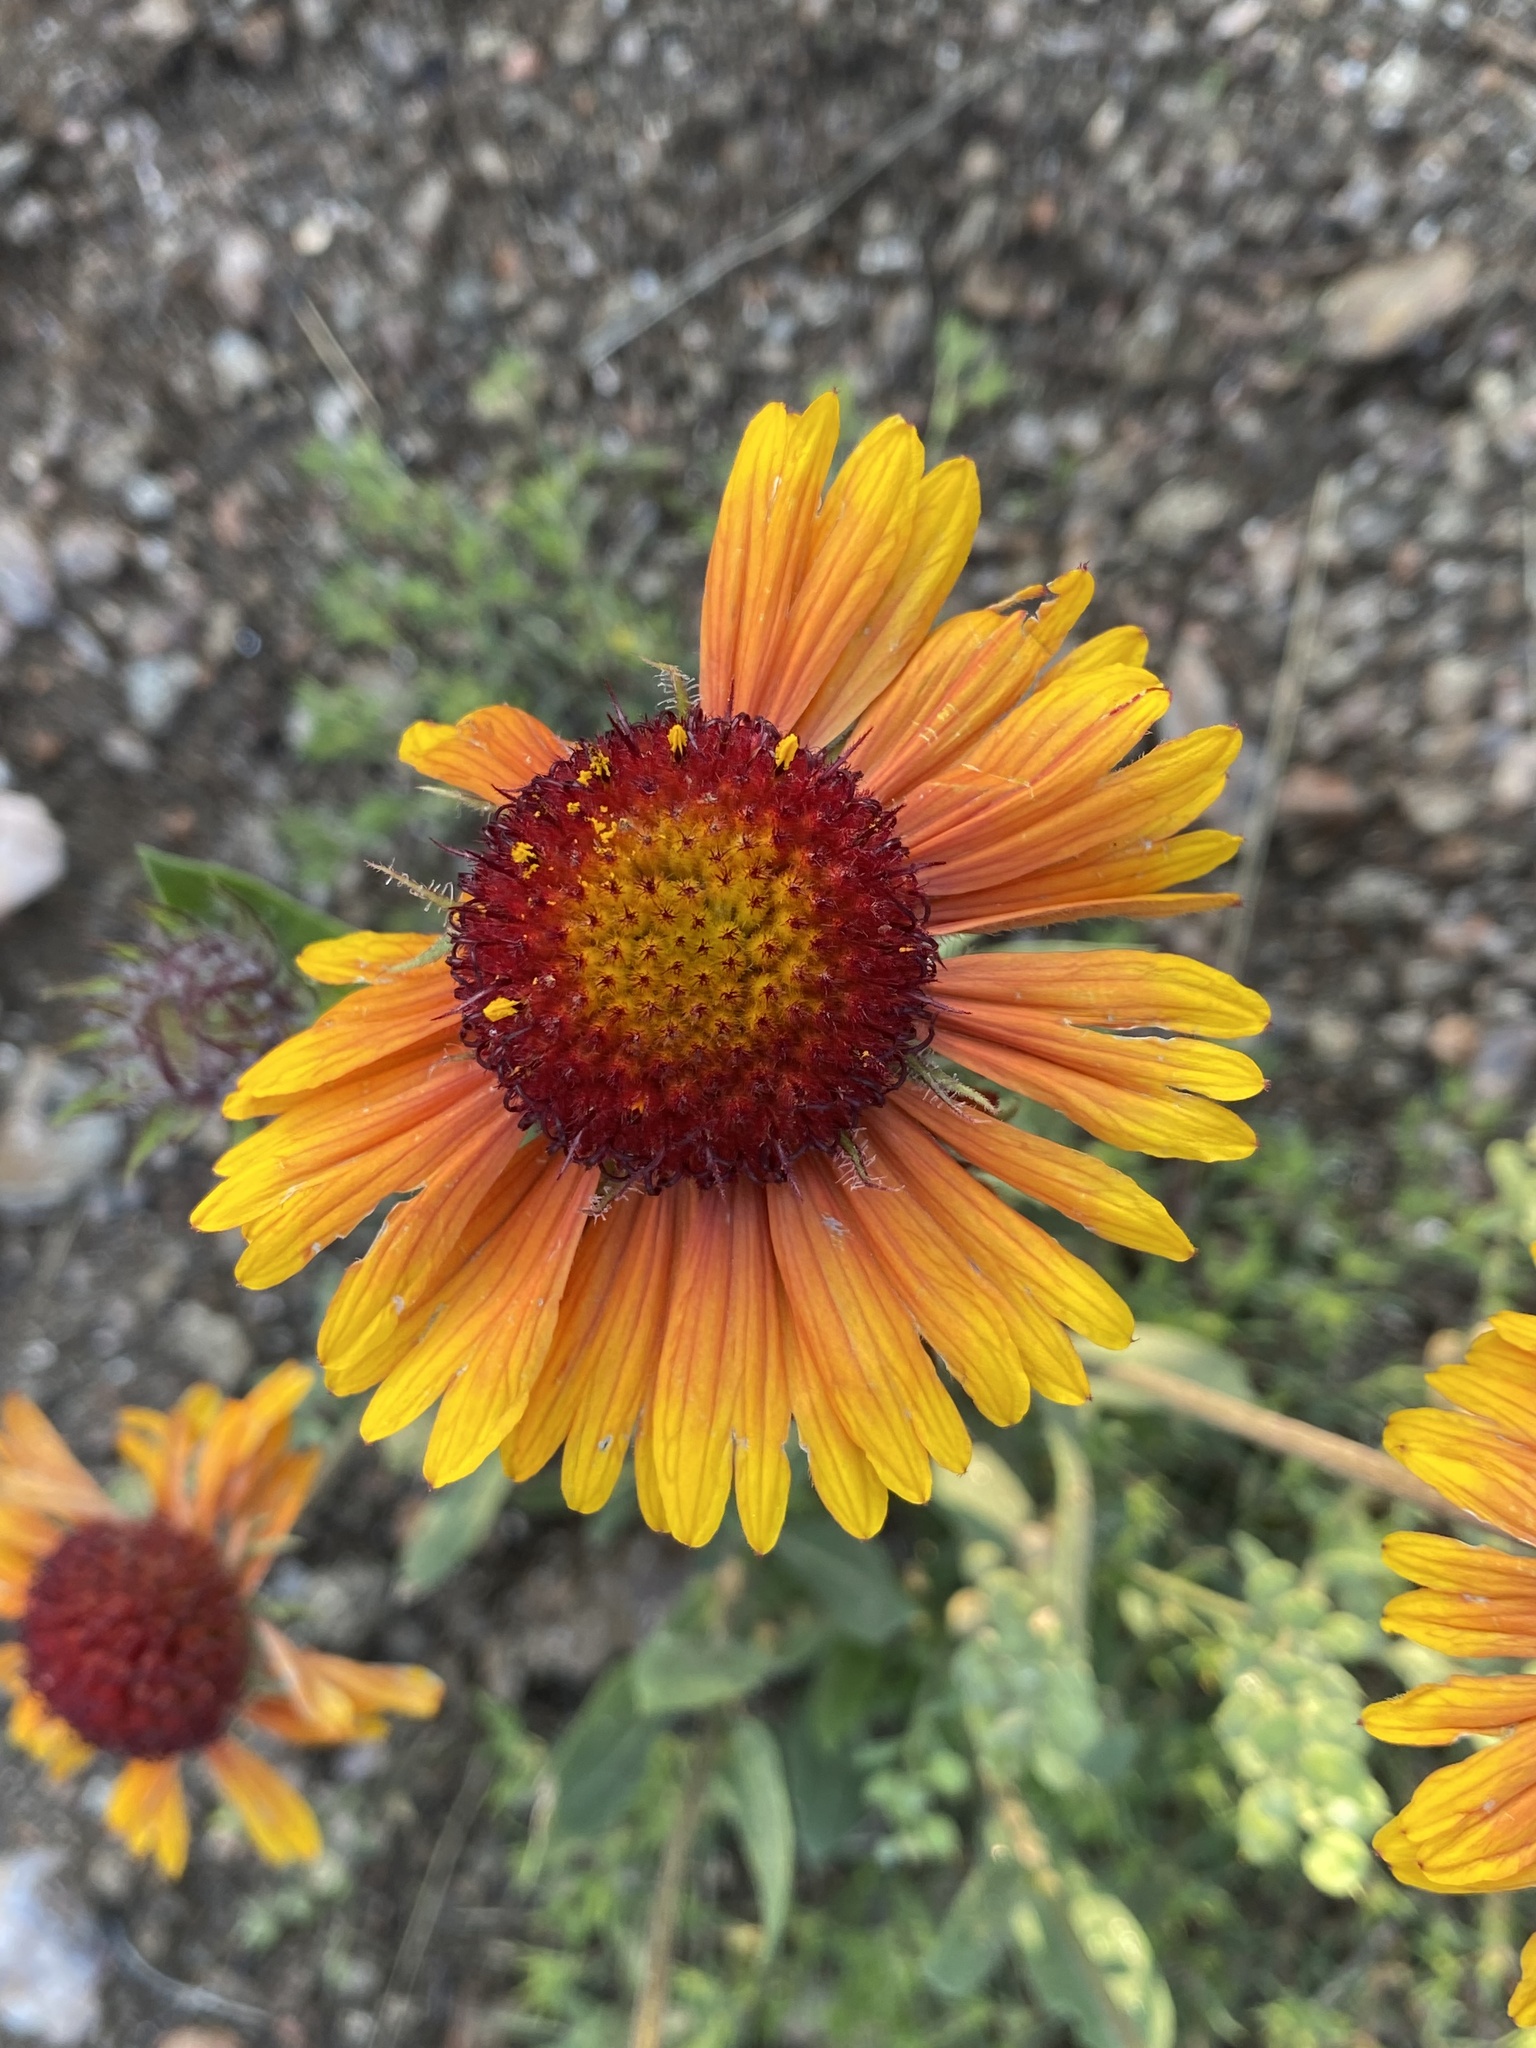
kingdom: Plantae
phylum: Tracheophyta
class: Magnoliopsida
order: Asterales
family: Asteraceae
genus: Gaillardia
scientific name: Gaillardia aristata
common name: Blanket-flower
